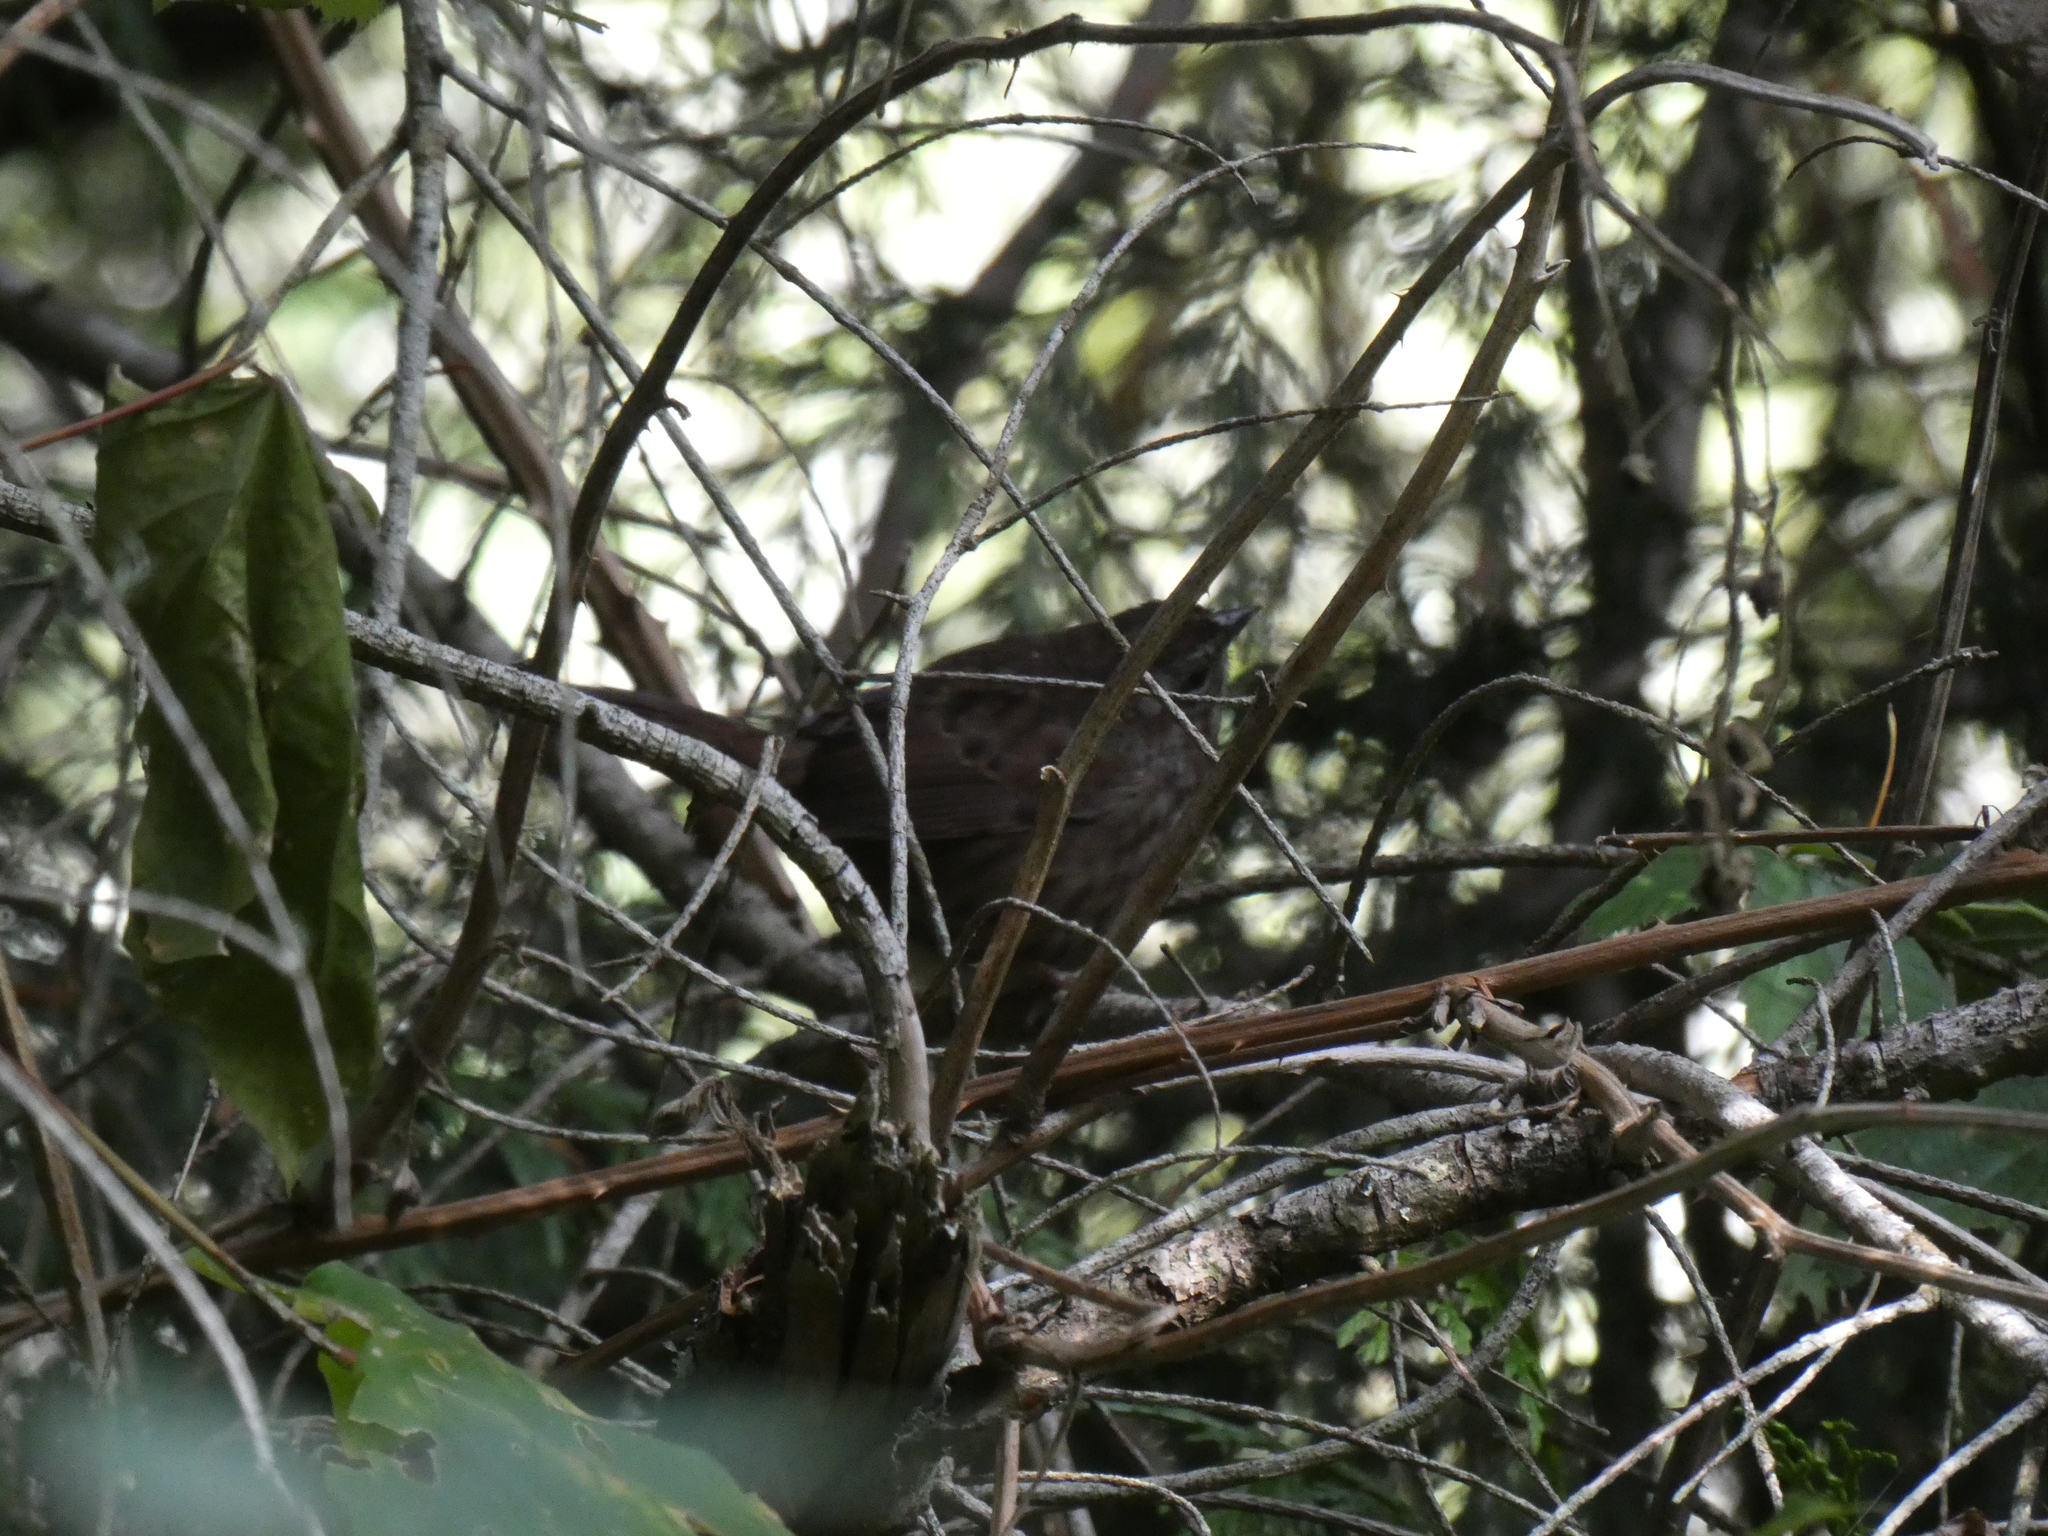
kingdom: Animalia
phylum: Chordata
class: Aves
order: Passeriformes
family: Passerellidae
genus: Melospiza
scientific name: Melospiza melodia
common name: Song sparrow
